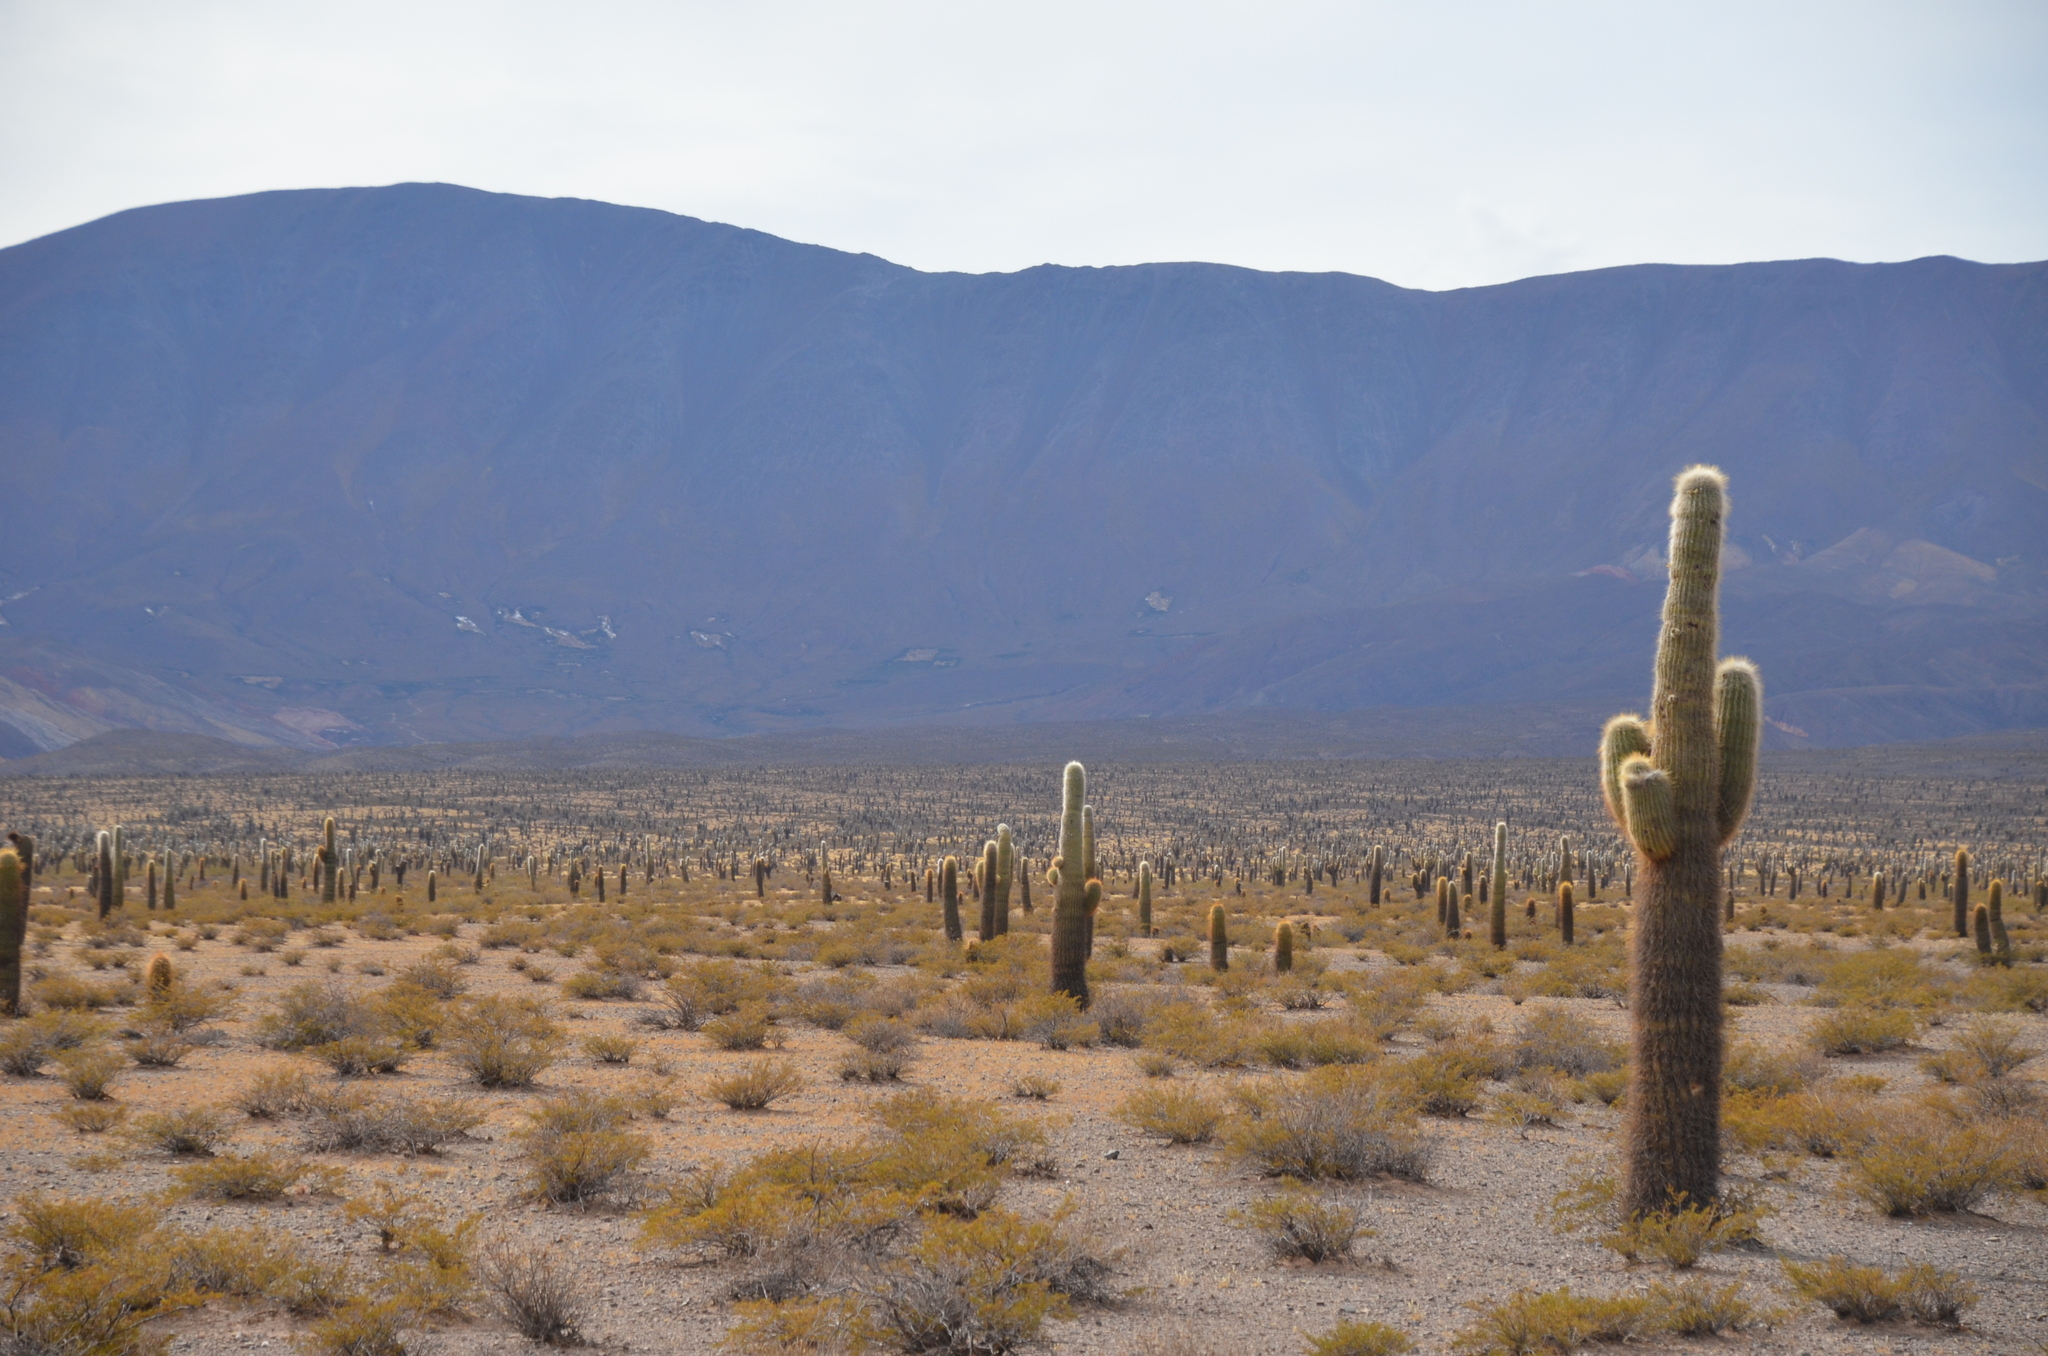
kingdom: Plantae
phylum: Tracheophyta
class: Magnoliopsida
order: Caryophyllales
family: Cactaceae
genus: Leucostele
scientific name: Leucostele atacamensis
